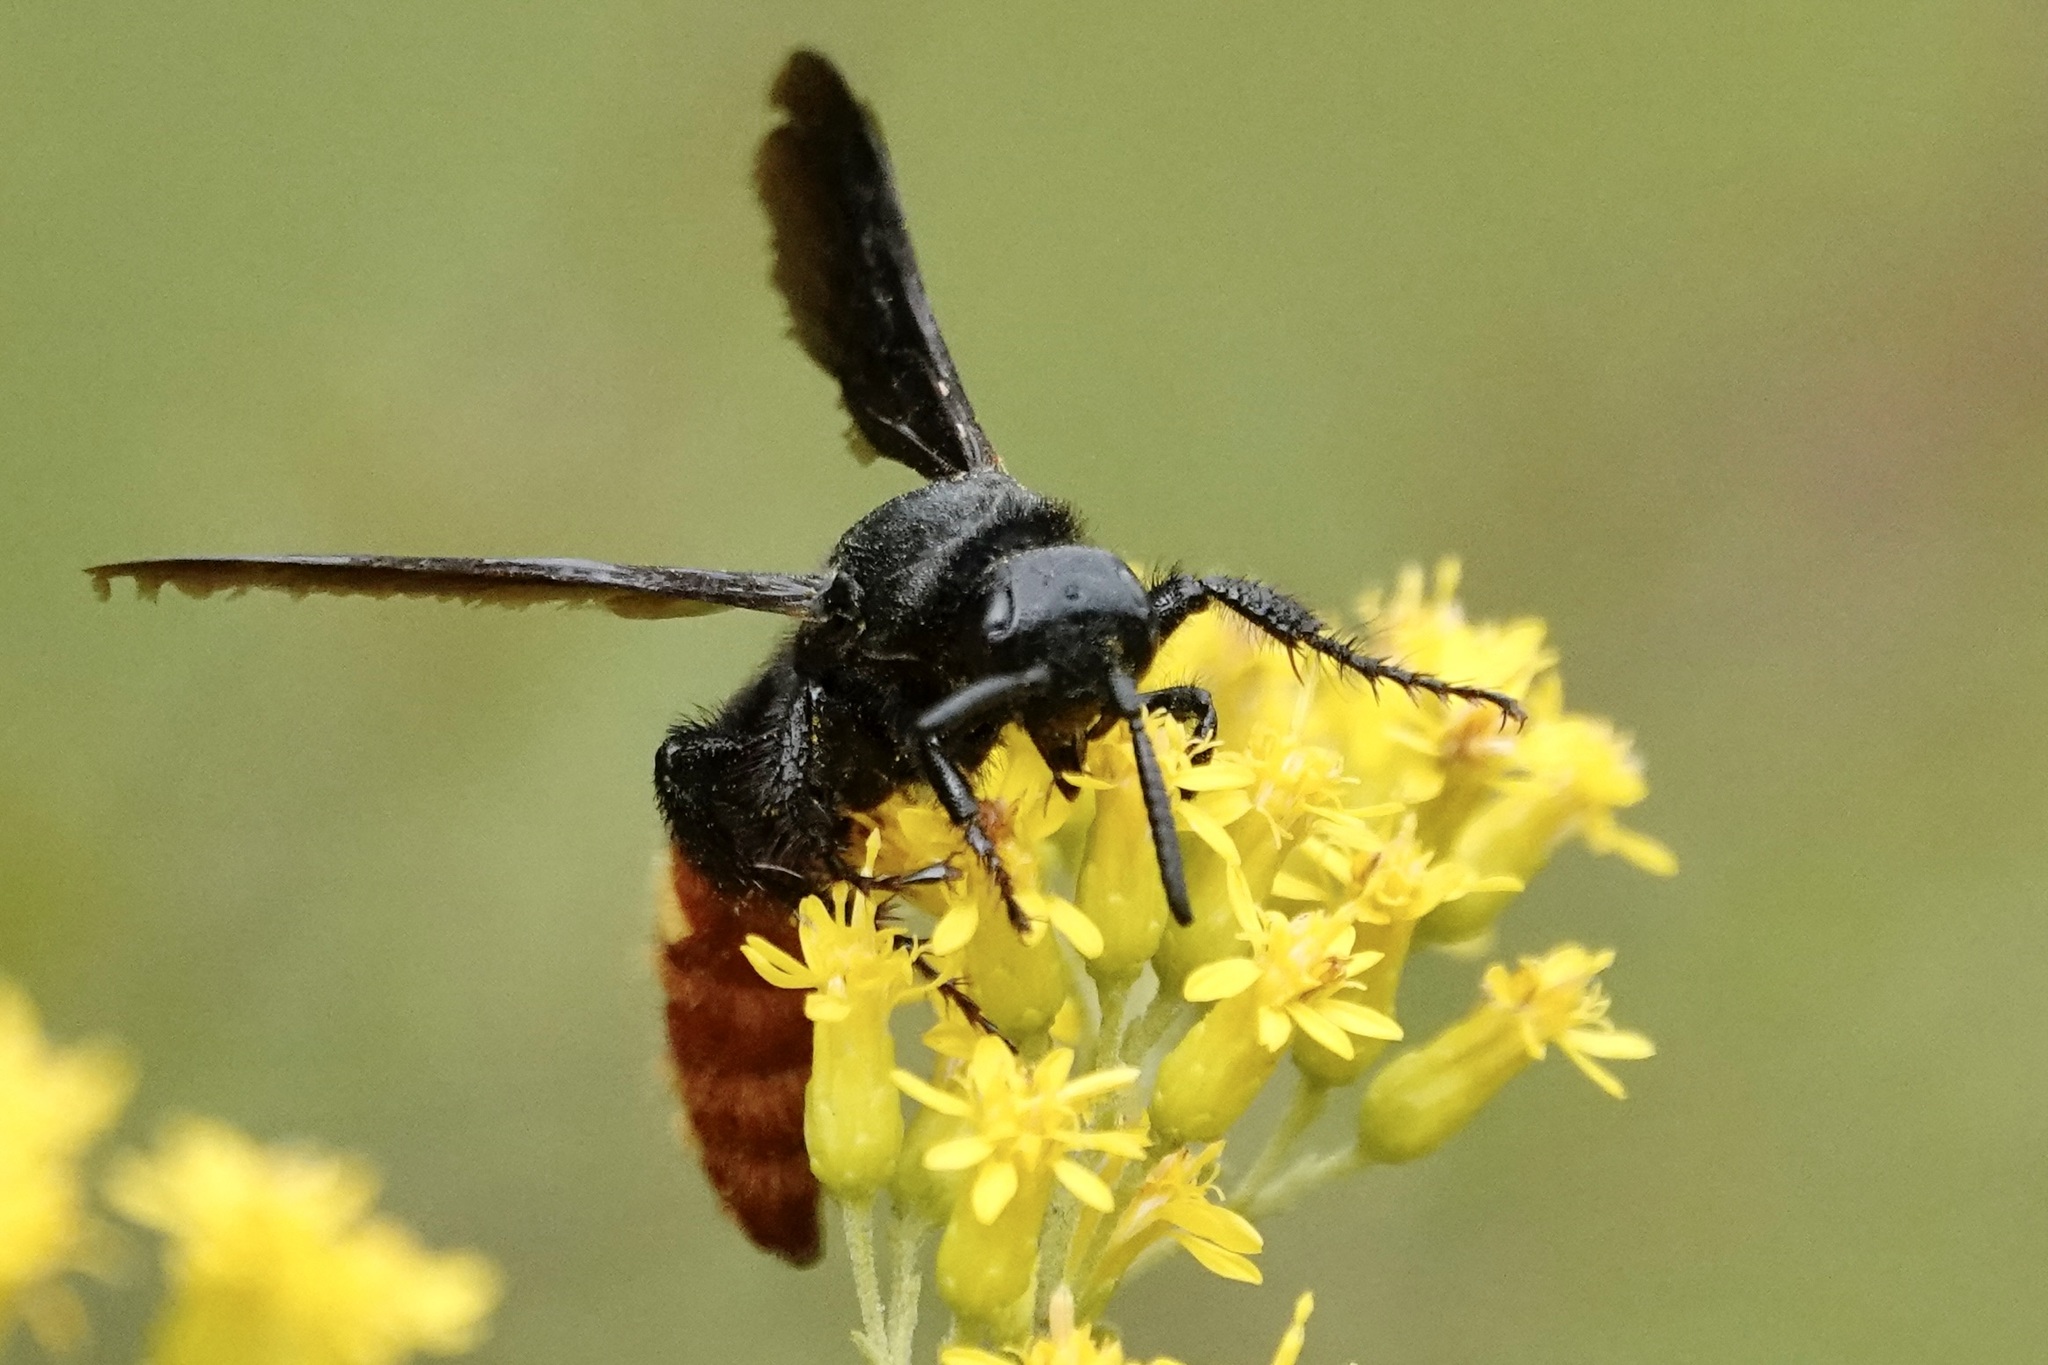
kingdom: Animalia
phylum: Arthropoda
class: Insecta
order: Hymenoptera
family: Scoliidae
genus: Scolia
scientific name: Scolia dubia
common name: Blue-winged scoliid wasp
